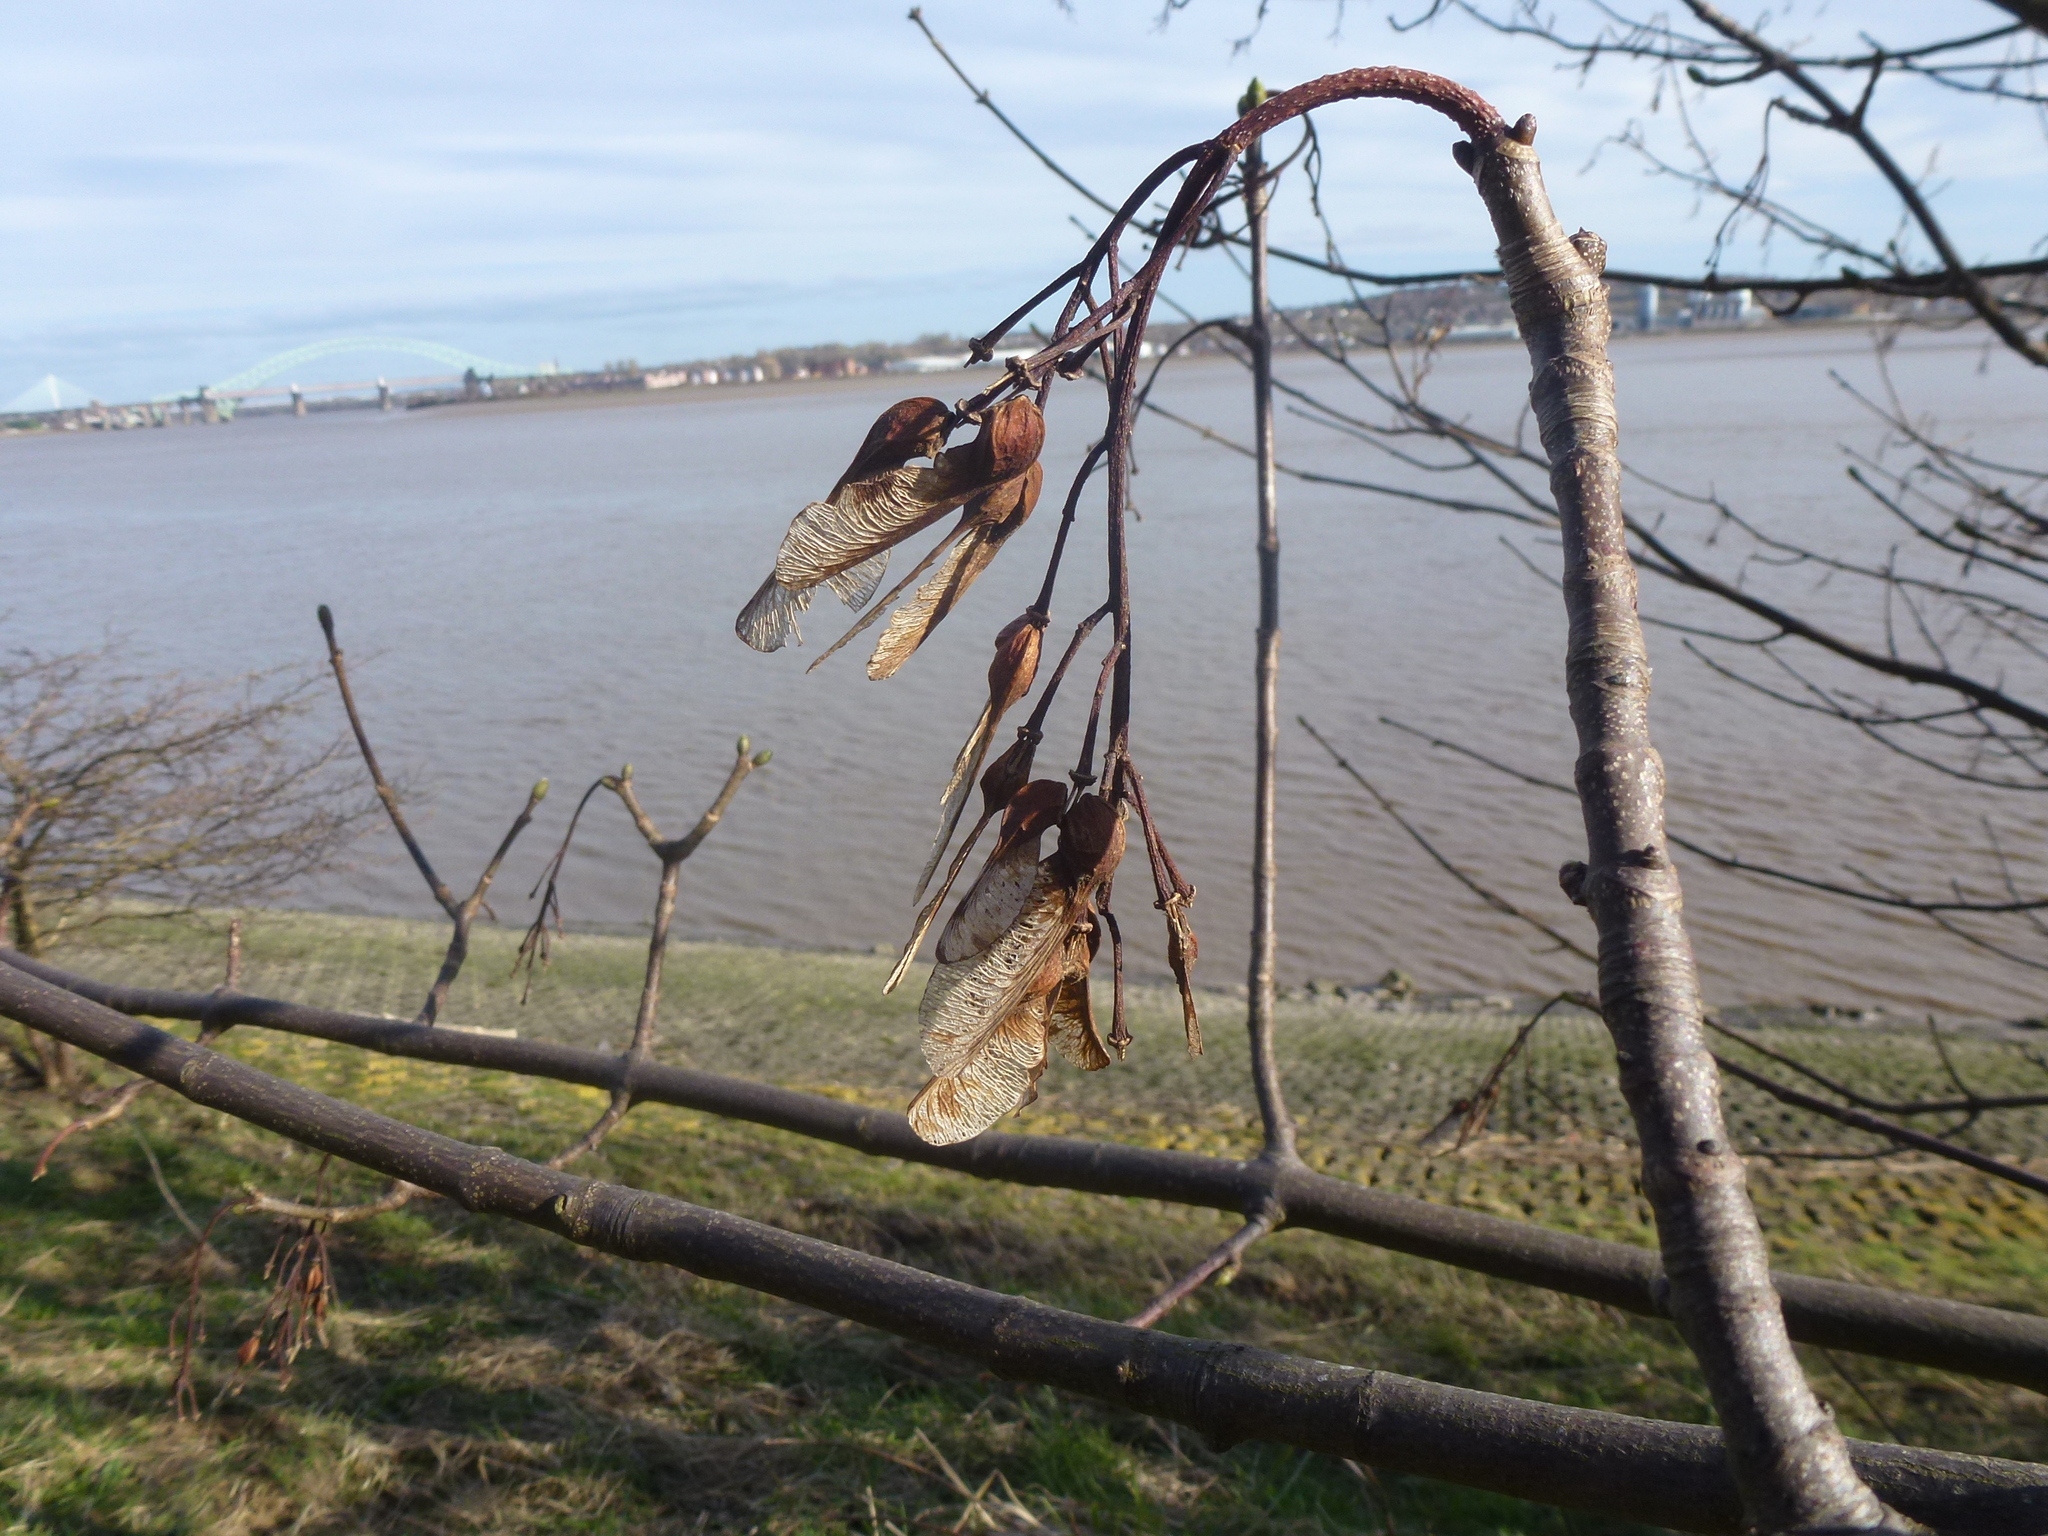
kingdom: Plantae
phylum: Tracheophyta
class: Magnoliopsida
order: Sapindales
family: Sapindaceae
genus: Acer
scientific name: Acer pseudoplatanus
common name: Sycamore
